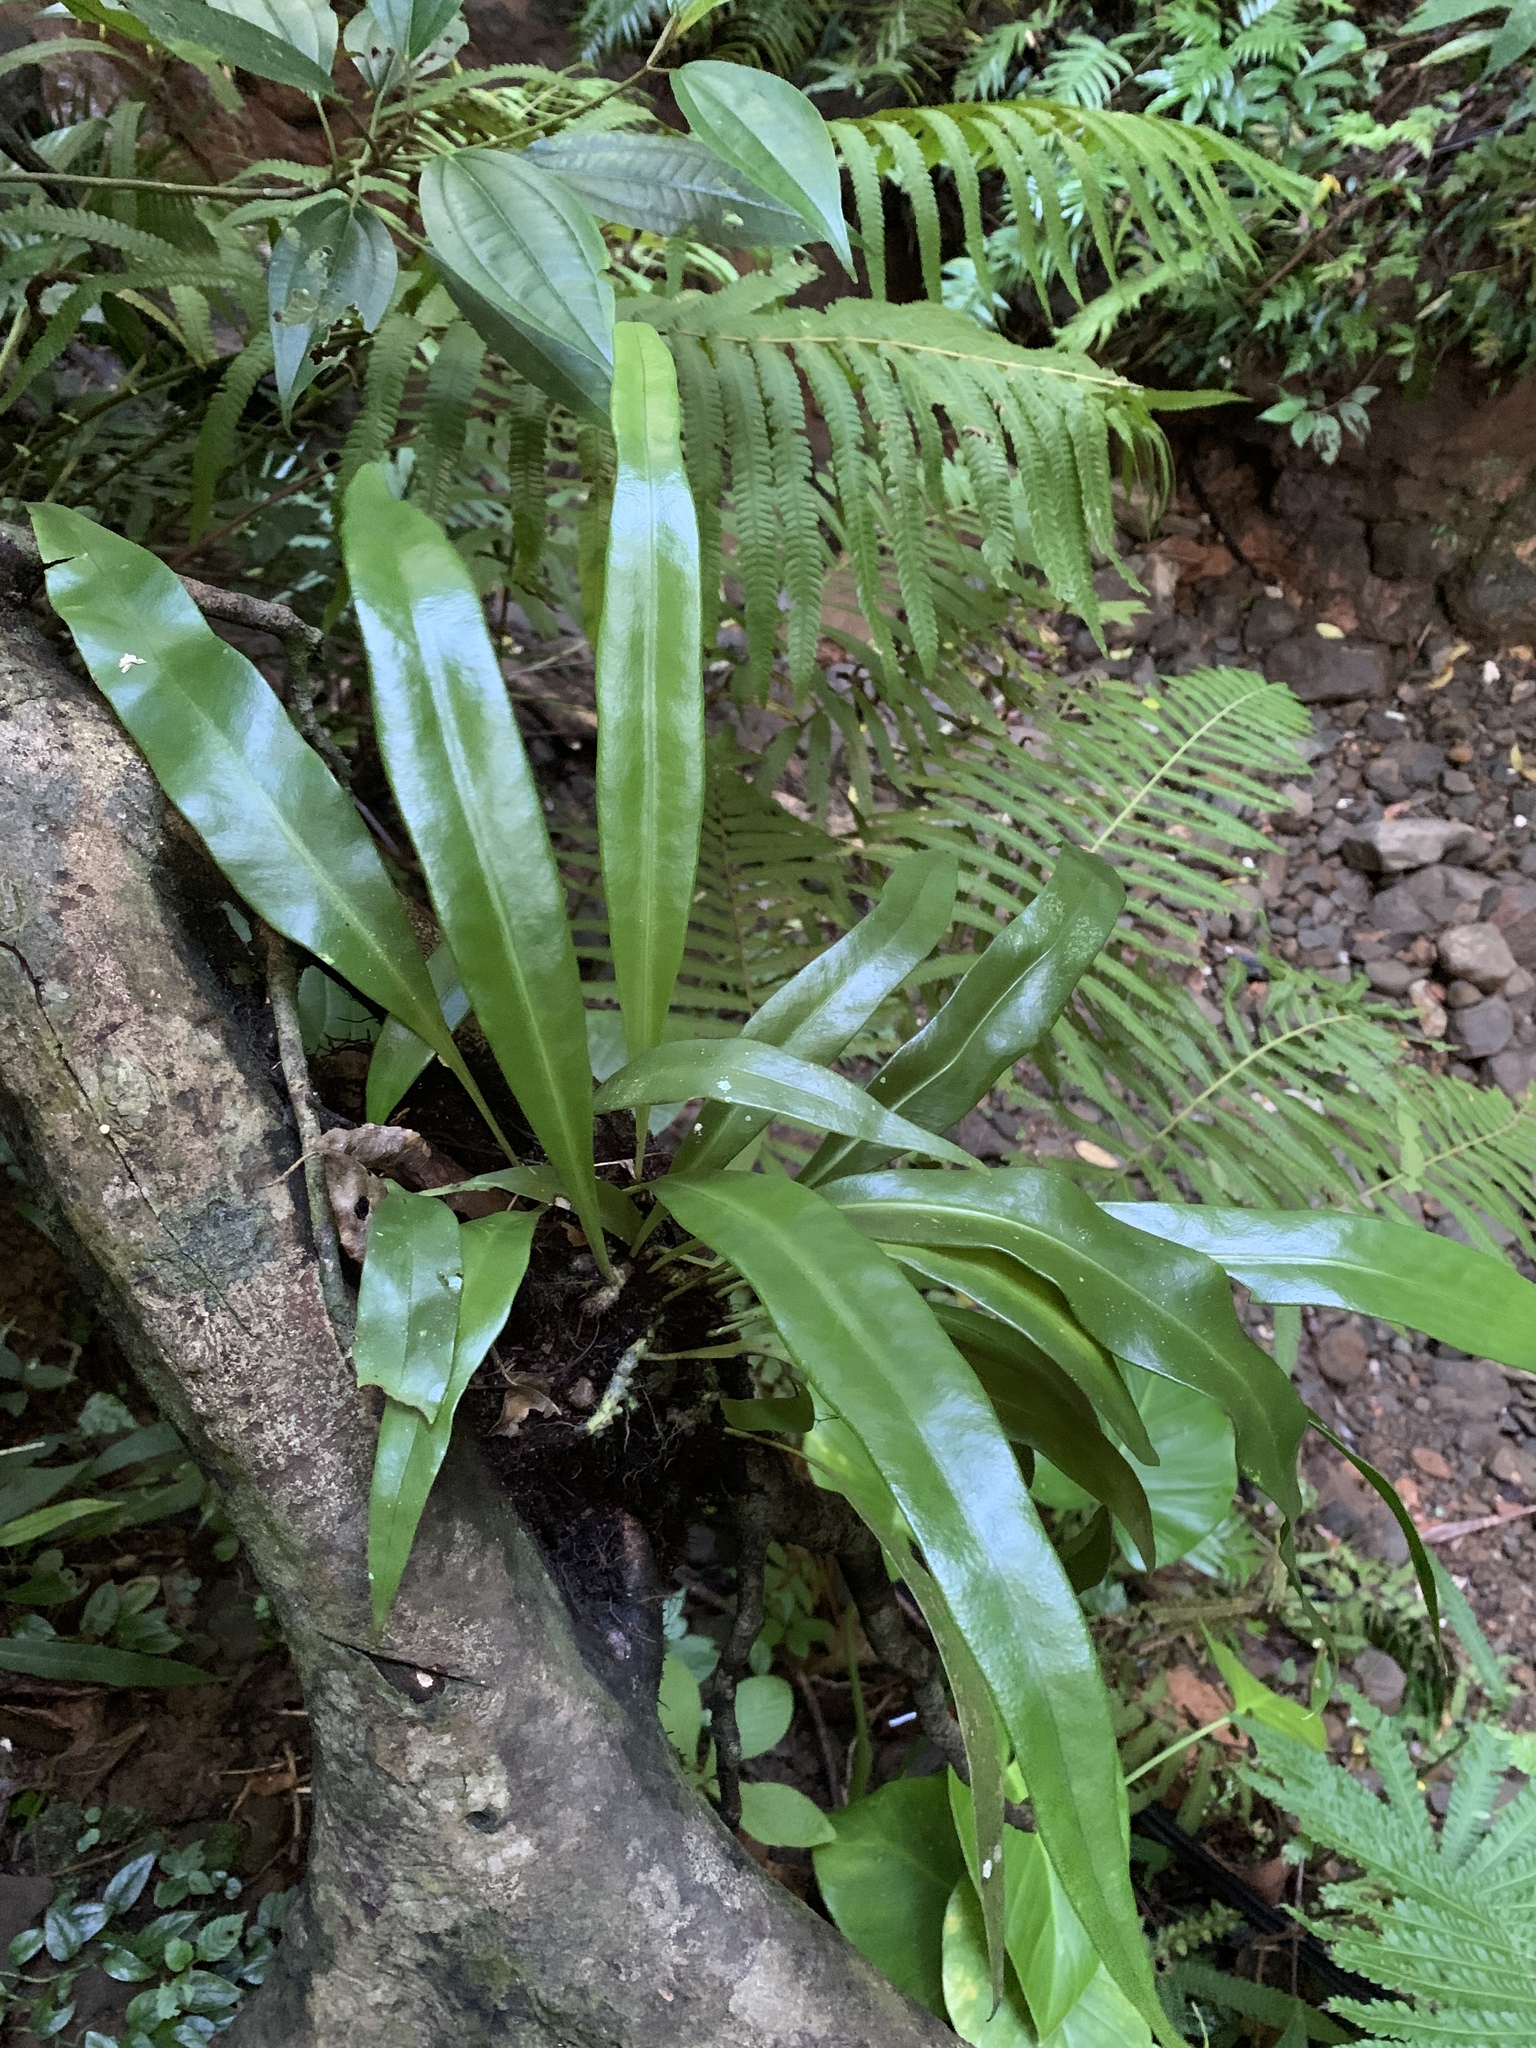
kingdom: Plantae
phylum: Tracheophyta
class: Polypodiopsida
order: Polypodiales
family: Polypodiaceae
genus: Microsorum
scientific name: Microsorum punctatum
